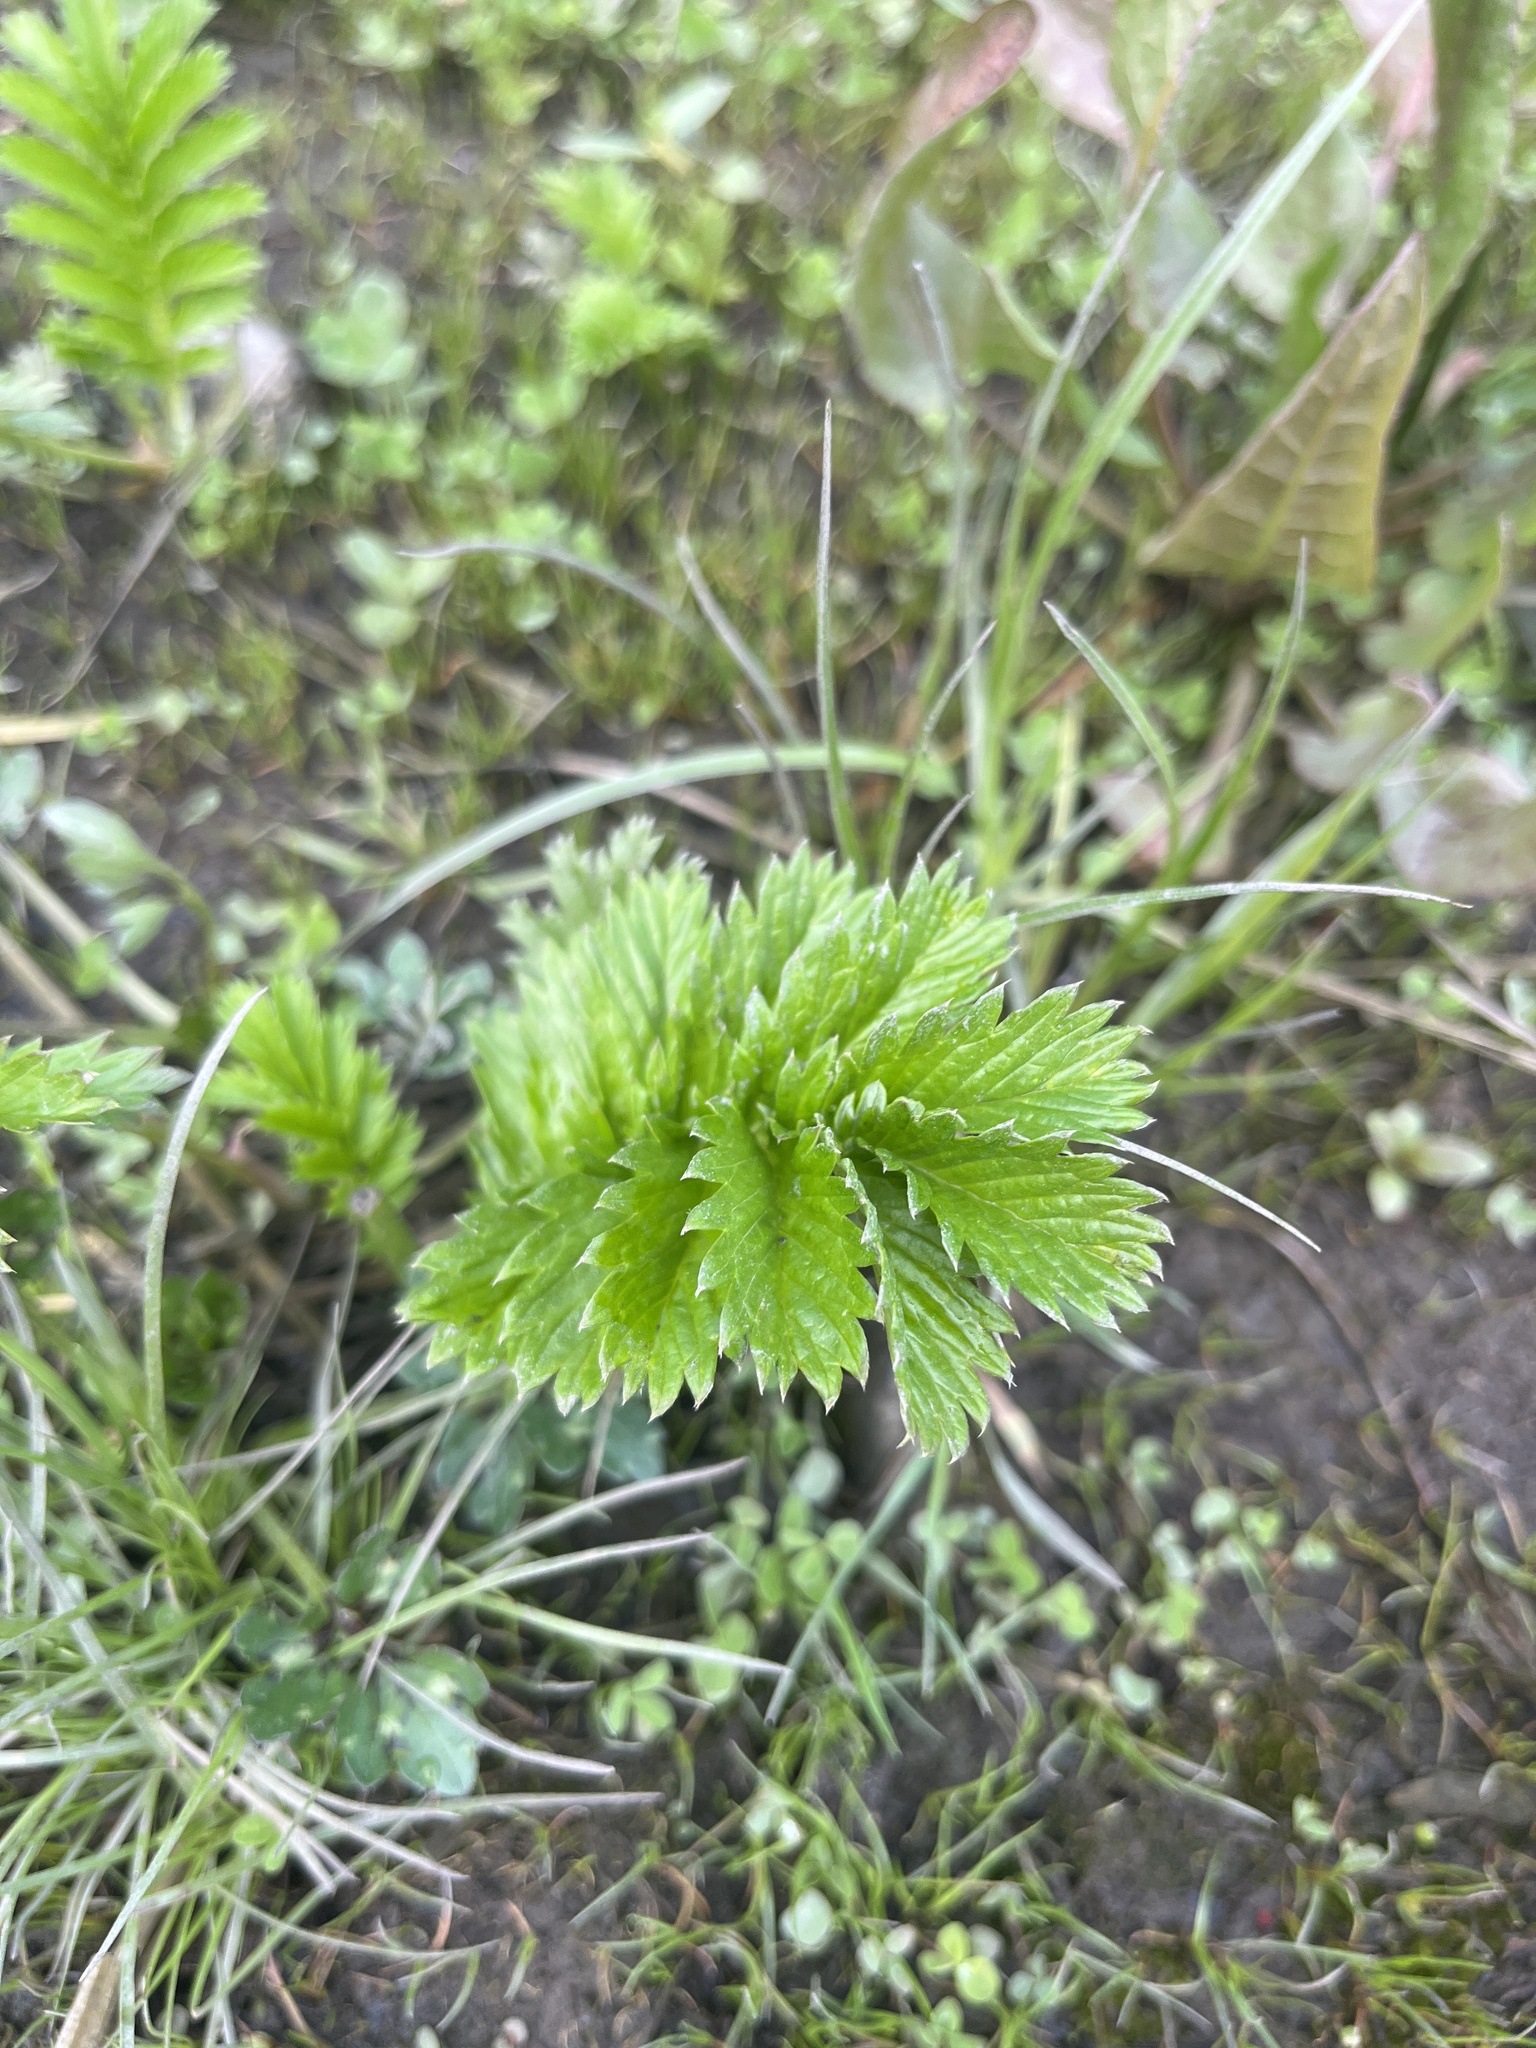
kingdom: Plantae
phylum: Tracheophyta
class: Magnoliopsida
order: Rosales
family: Rosaceae
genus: Argentina
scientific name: Argentina anserina
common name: Common silverweed
